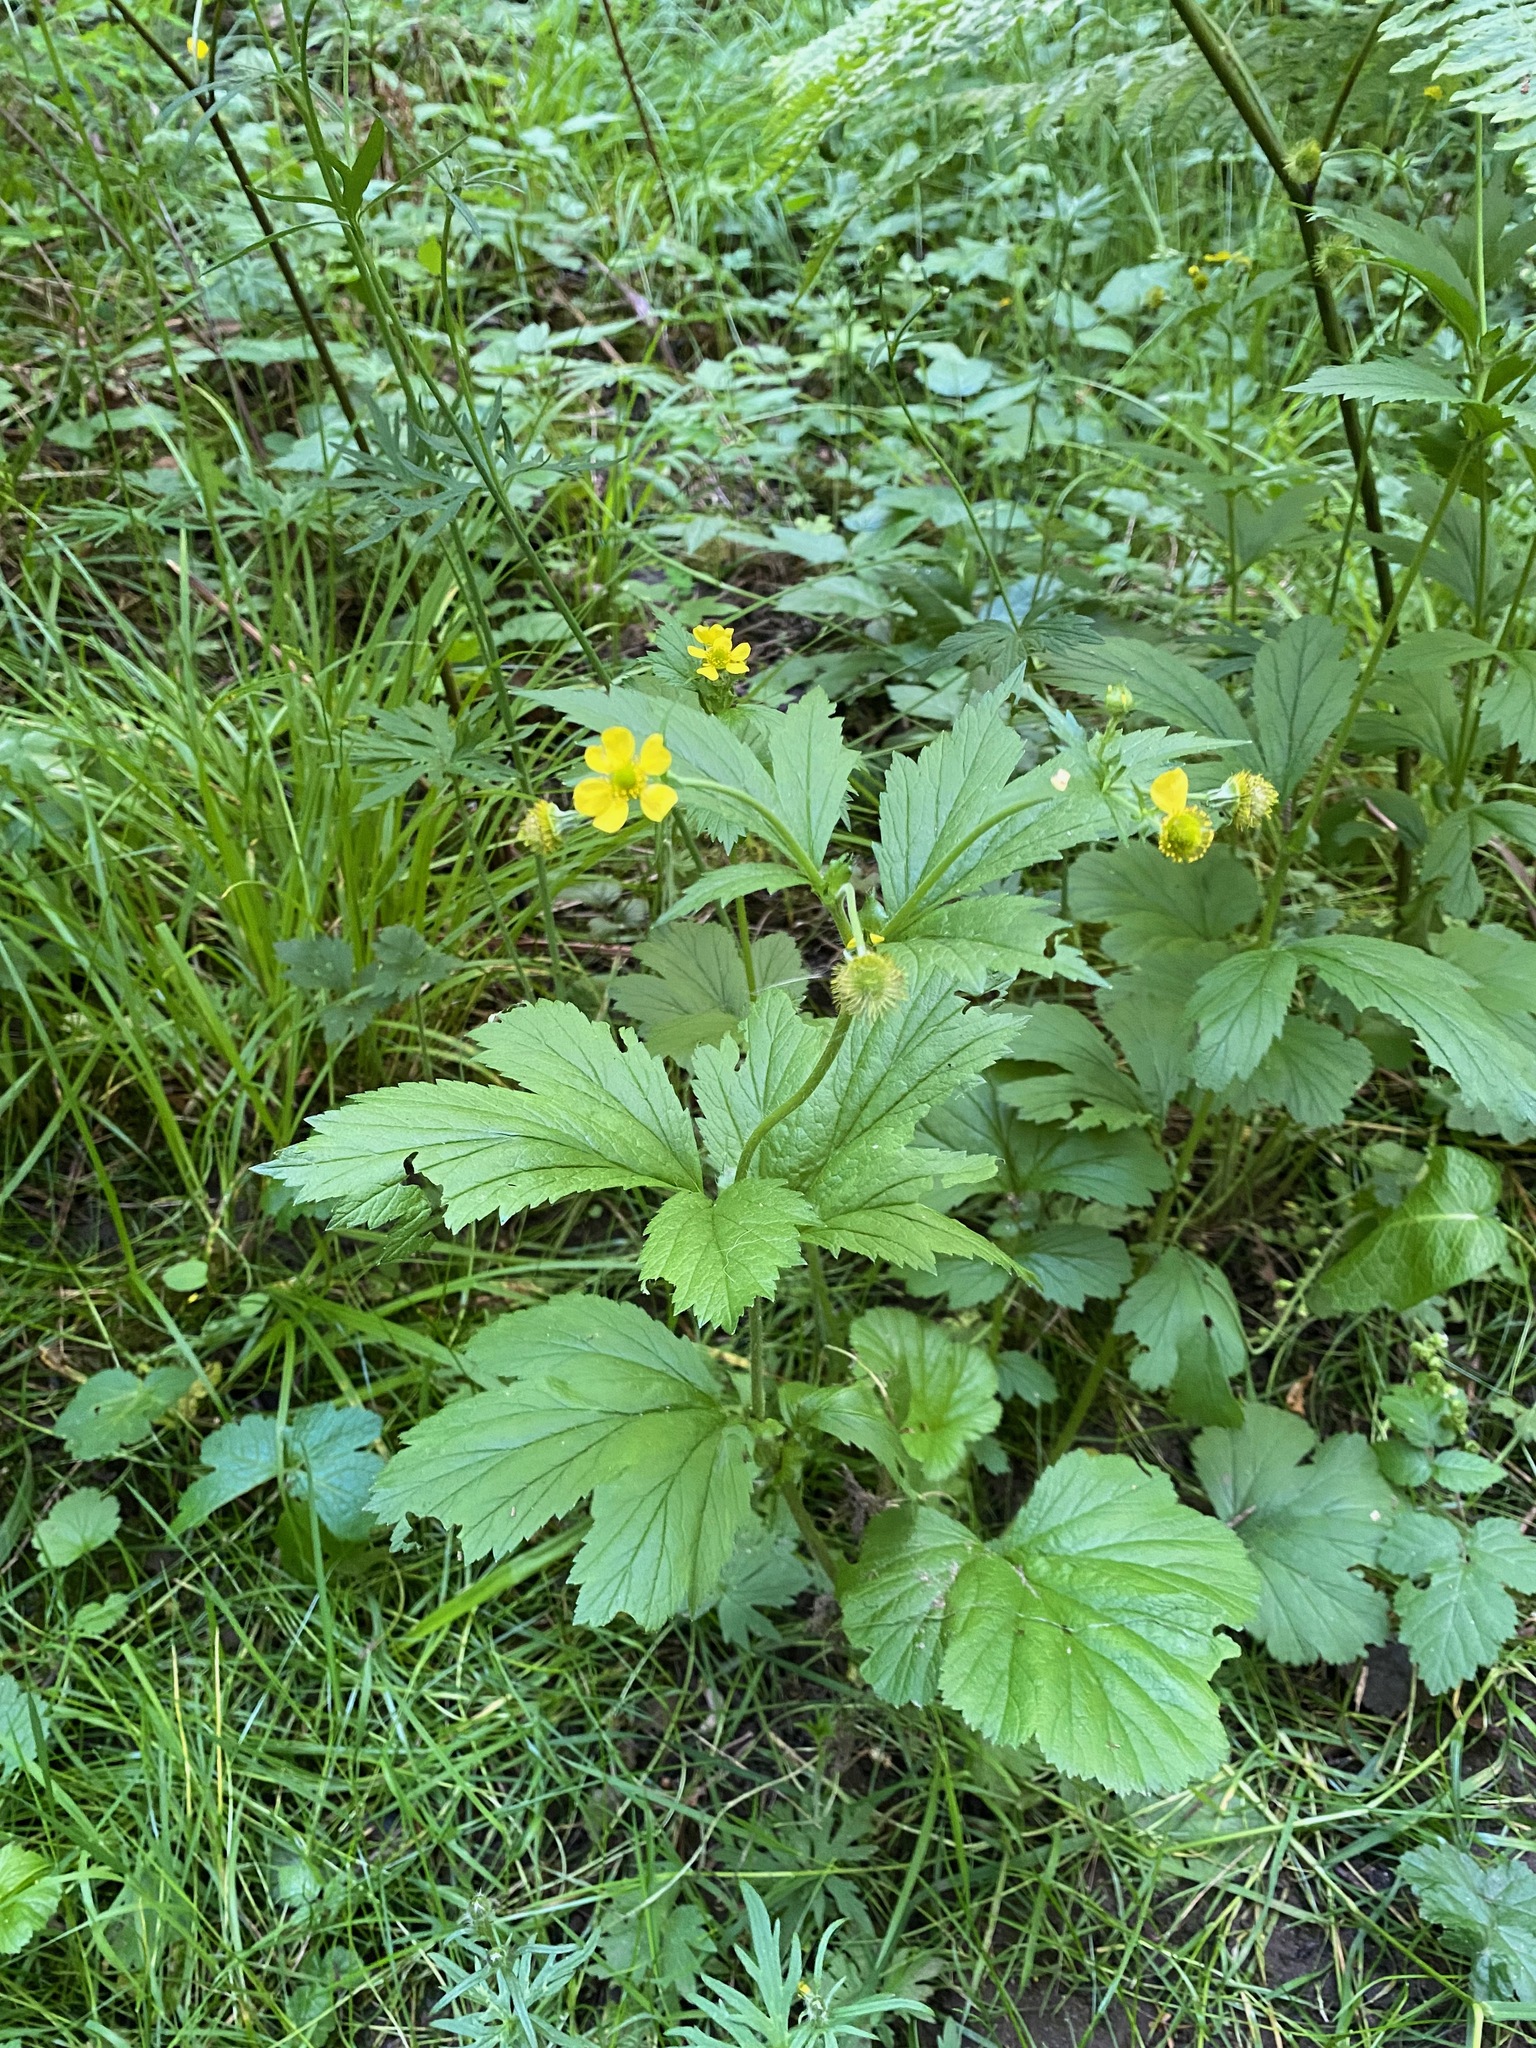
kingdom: Plantae
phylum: Tracheophyta
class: Magnoliopsida
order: Rosales
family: Rosaceae
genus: Geum
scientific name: Geum macrophyllum
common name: Large-leaved avens
